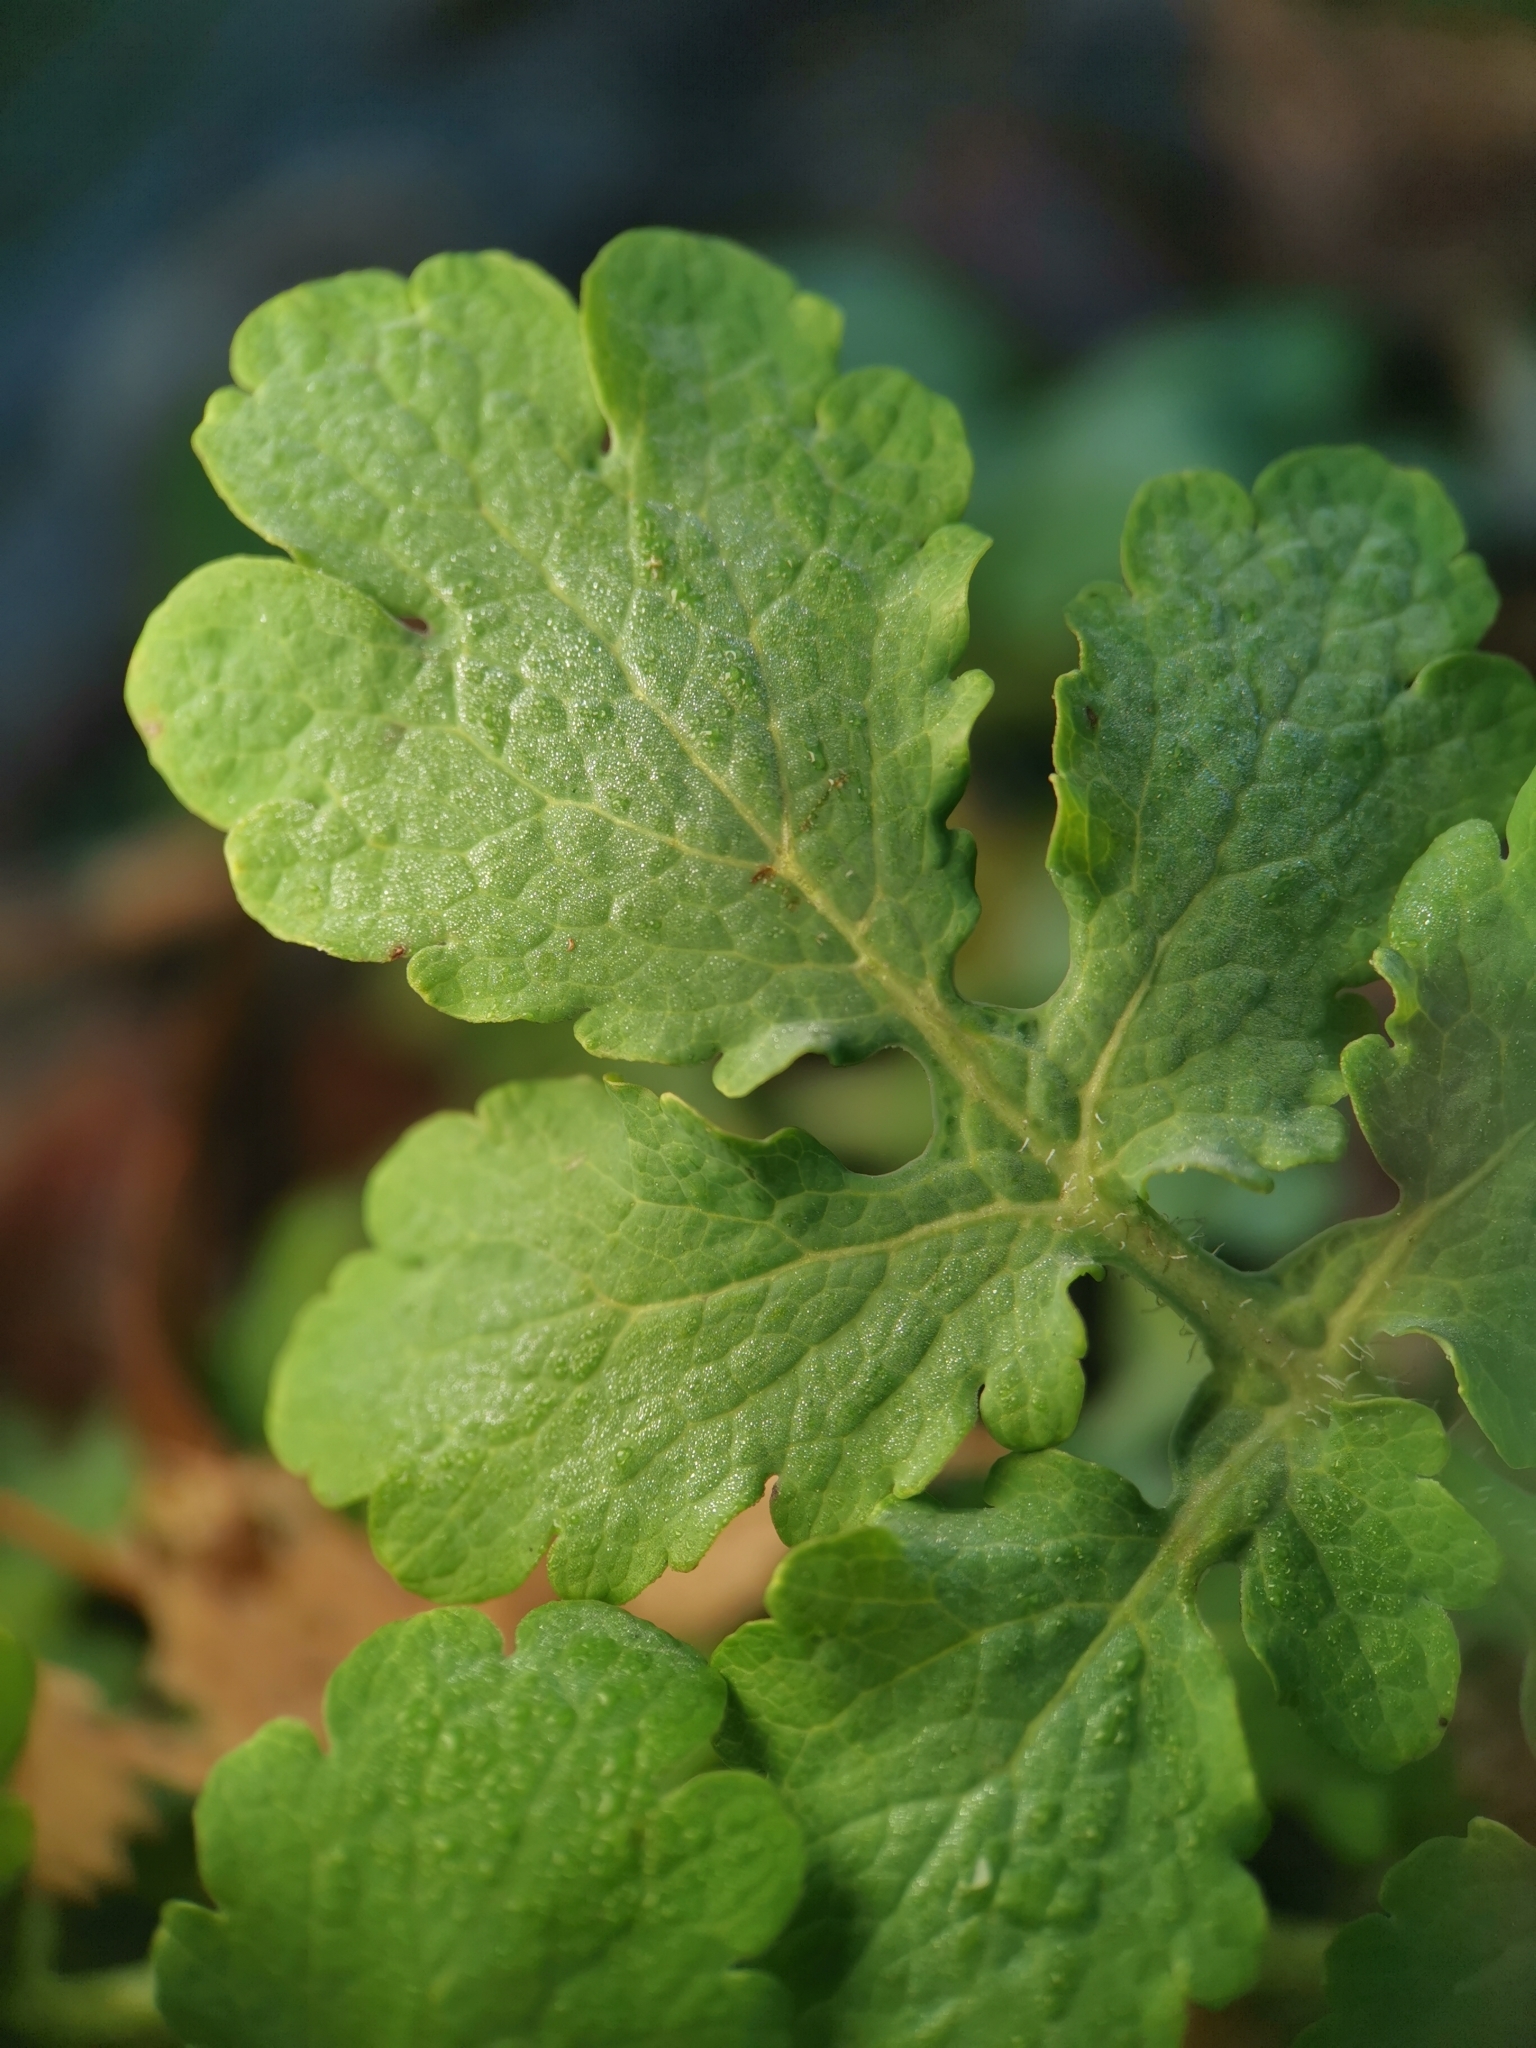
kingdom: Plantae
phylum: Tracheophyta
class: Magnoliopsida
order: Ranunculales
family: Papaveraceae
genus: Chelidonium
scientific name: Chelidonium majus
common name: Greater celandine
